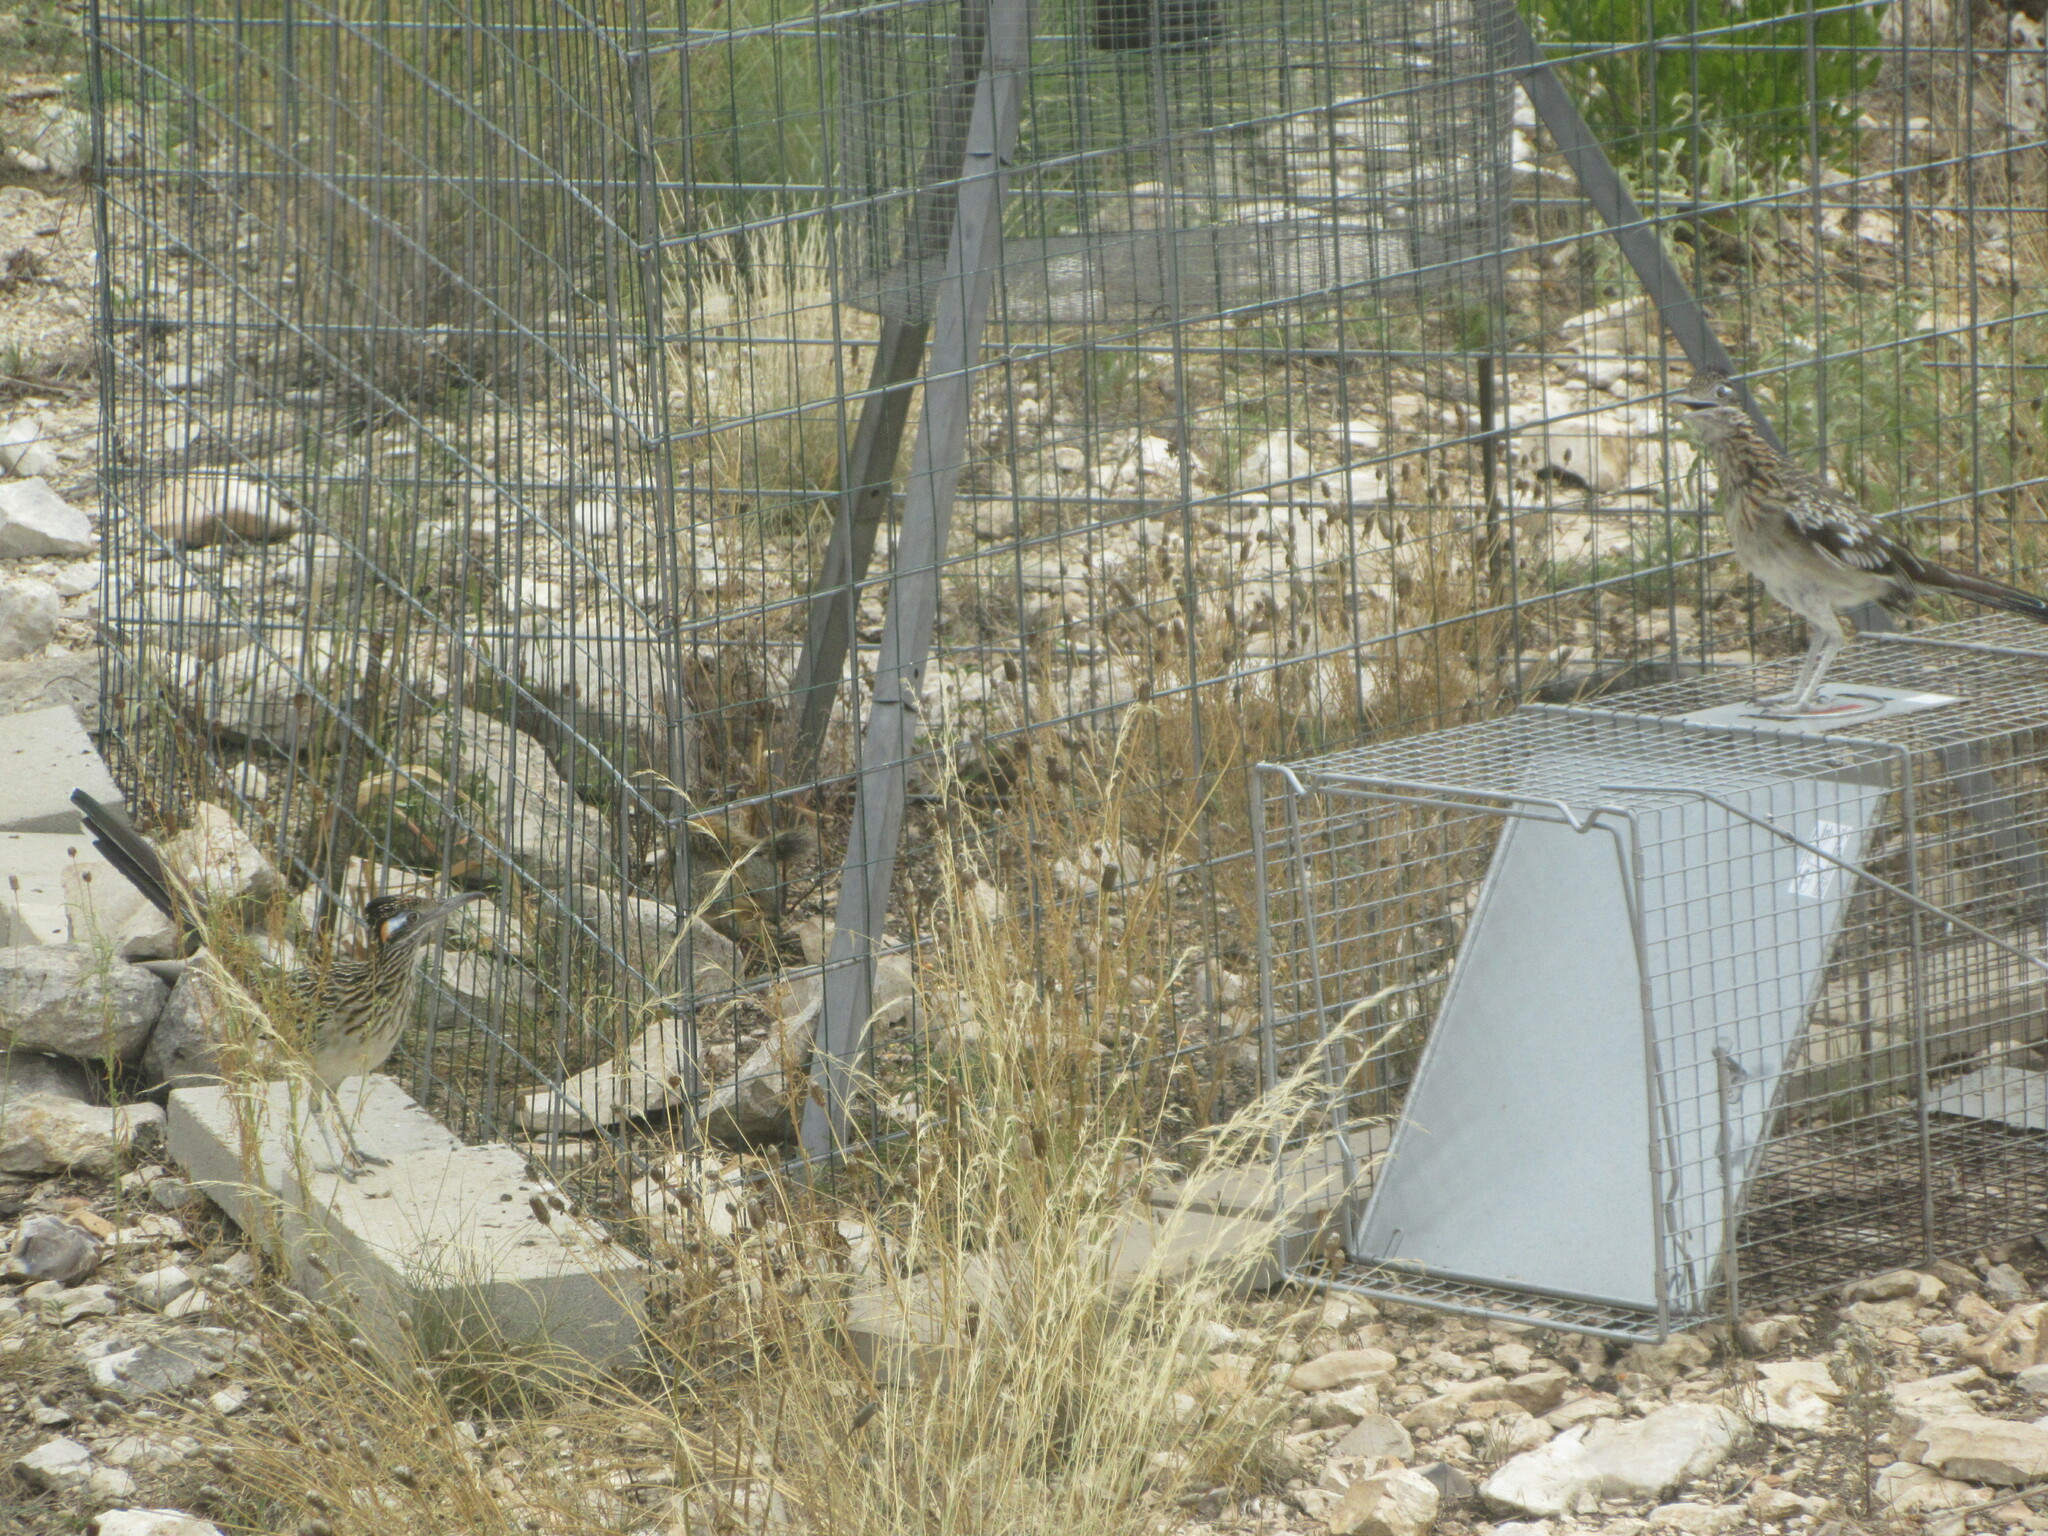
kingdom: Animalia
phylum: Chordata
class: Aves
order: Cuculiformes
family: Cuculidae
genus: Geococcyx
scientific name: Geococcyx californianus
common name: Greater roadrunner
